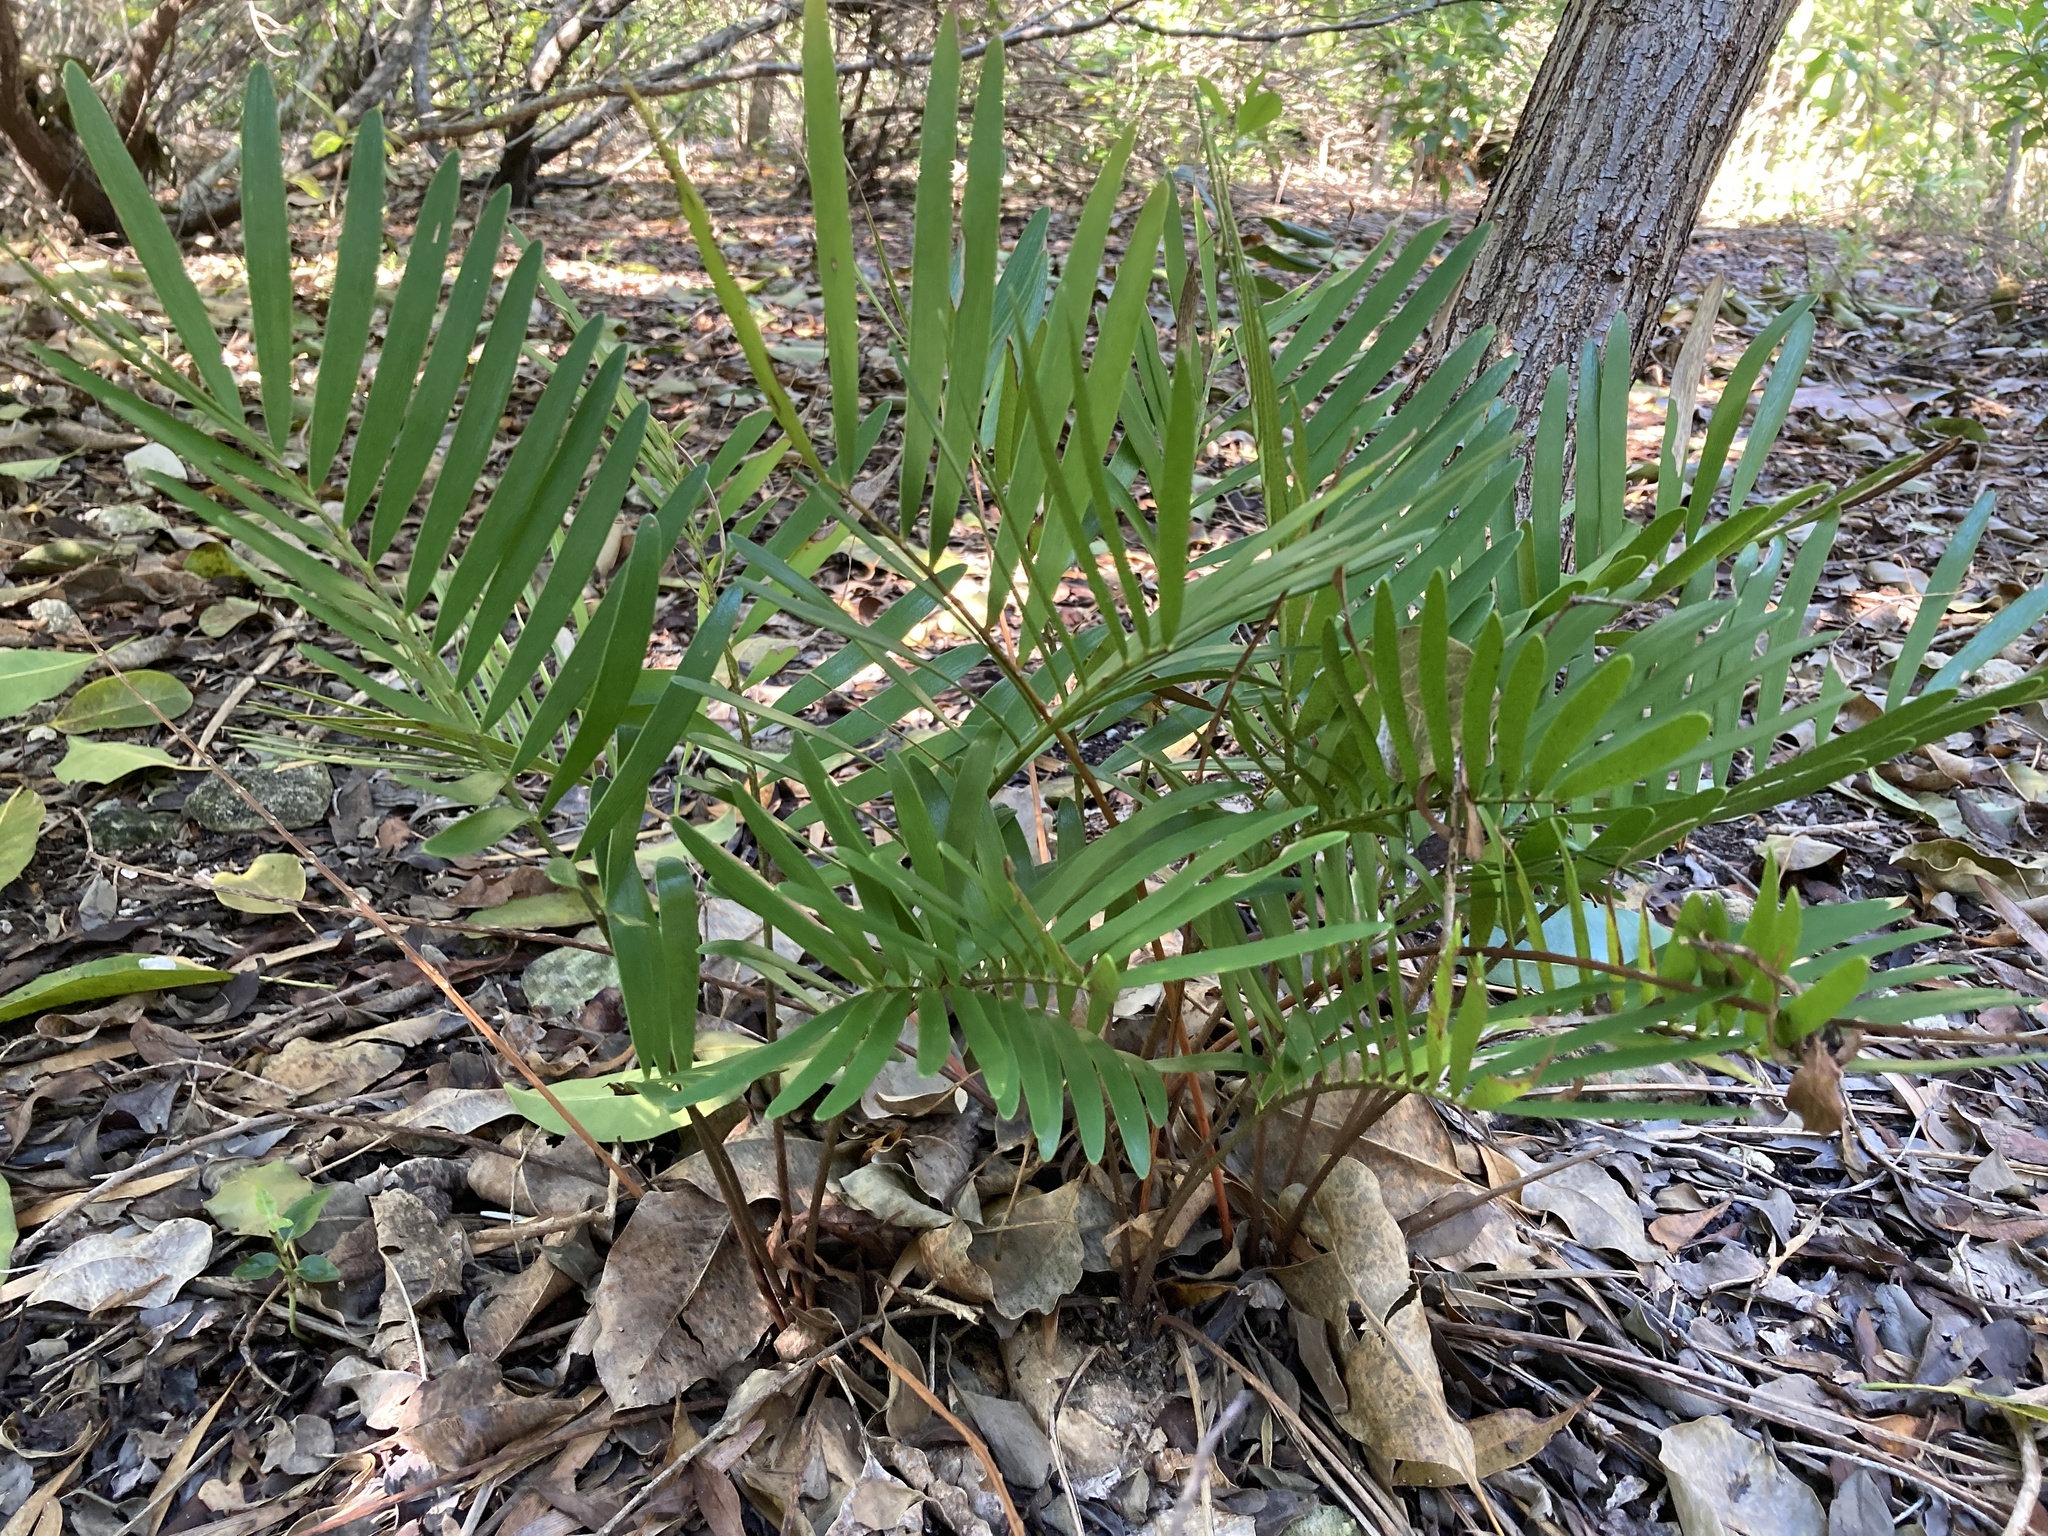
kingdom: Plantae
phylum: Tracheophyta
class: Cycadopsida
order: Cycadales
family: Zamiaceae
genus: Zamia
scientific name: Zamia integrifolia
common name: Florida arrowroot
